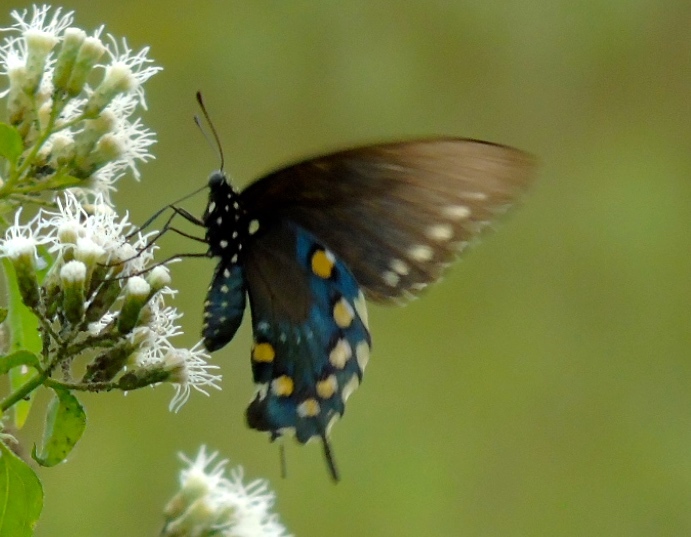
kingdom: Animalia
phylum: Arthropoda
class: Insecta
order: Lepidoptera
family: Papilionidae
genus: Battus
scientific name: Battus philenor
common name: Pipevine swallowtail
